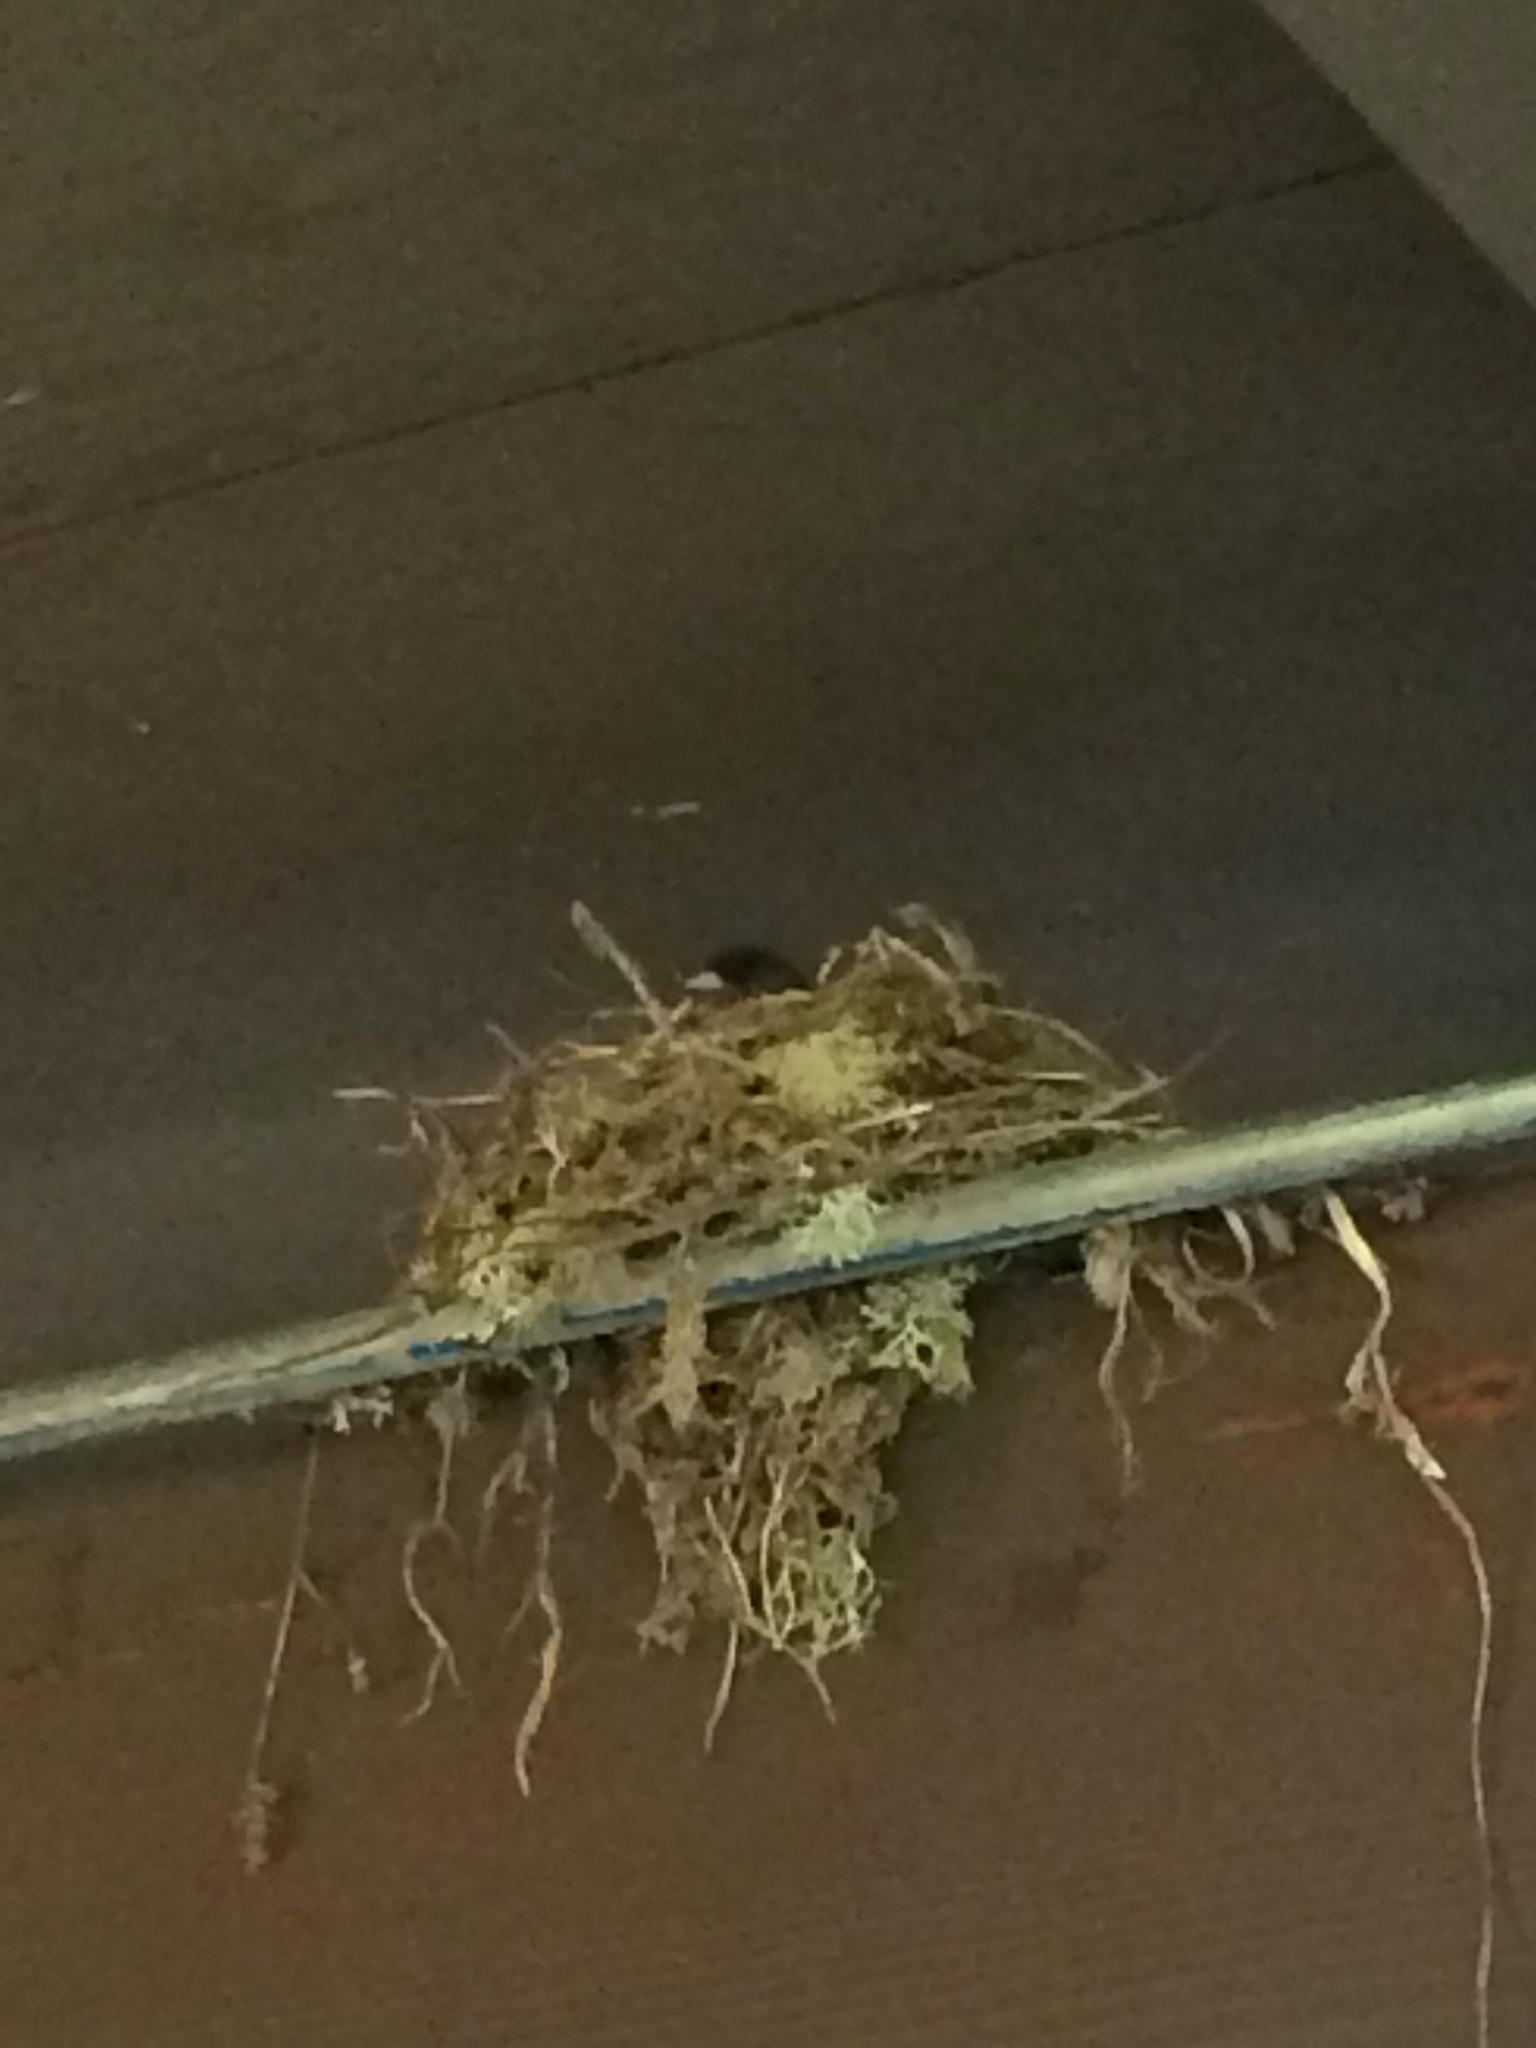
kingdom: Animalia
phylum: Chordata
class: Aves
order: Passeriformes
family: Passerellidae
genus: Junco
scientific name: Junco hyemalis
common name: Dark-eyed junco
